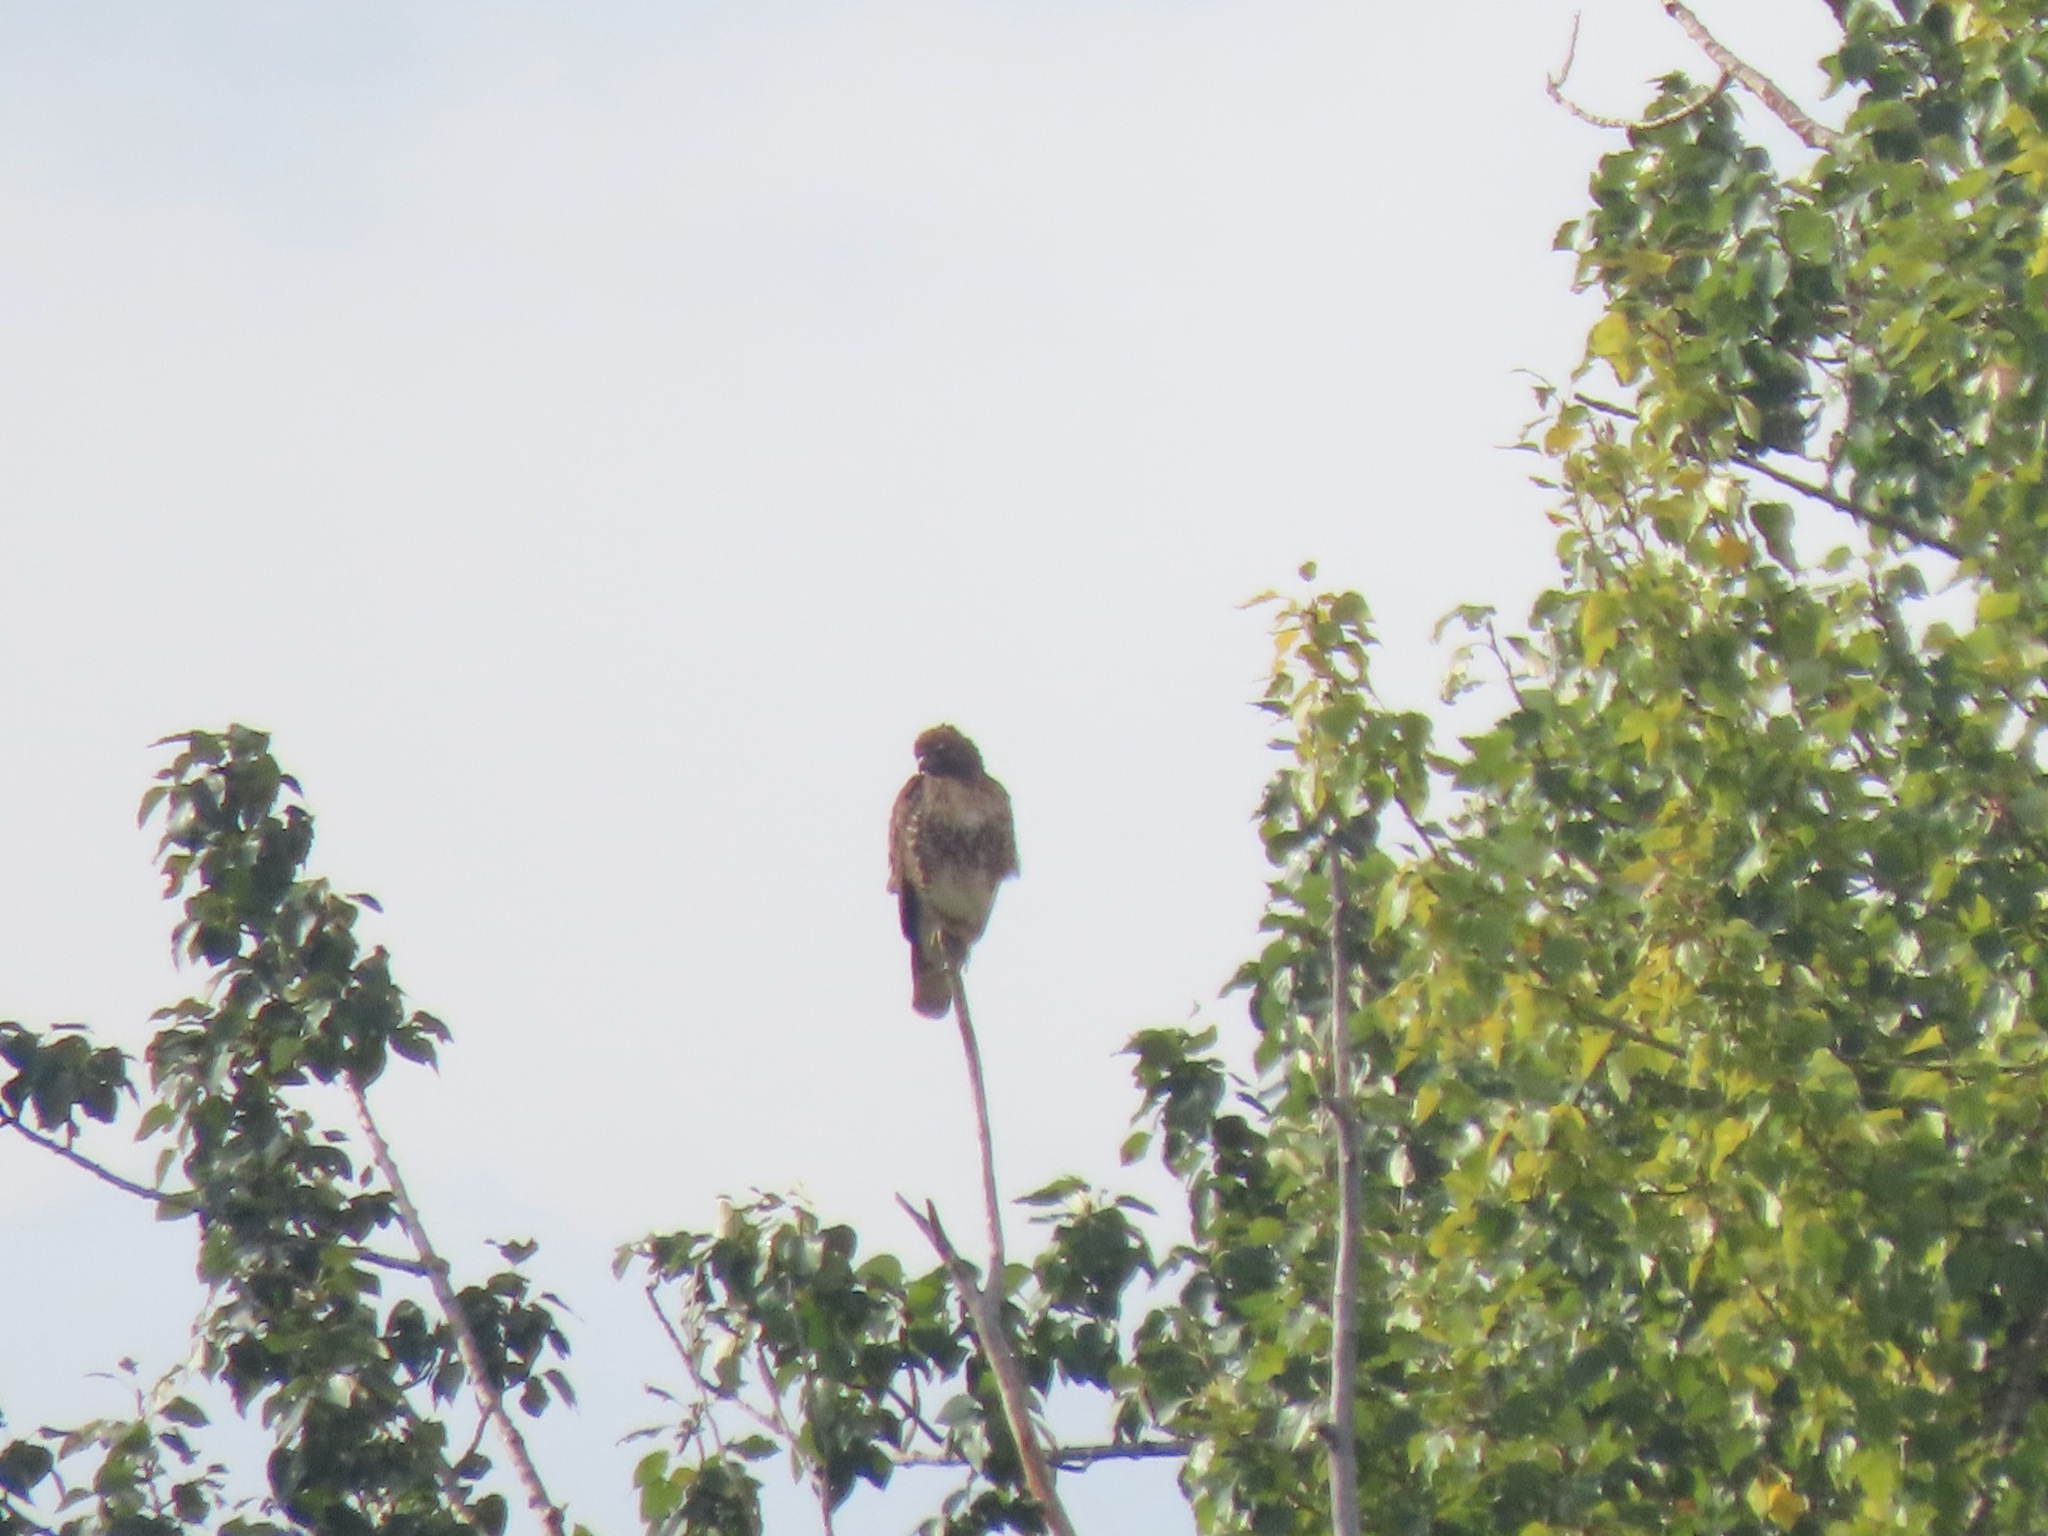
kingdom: Animalia
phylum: Chordata
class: Aves
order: Accipitriformes
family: Accipitridae
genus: Buteo
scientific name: Buteo jamaicensis
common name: Red-tailed hawk
